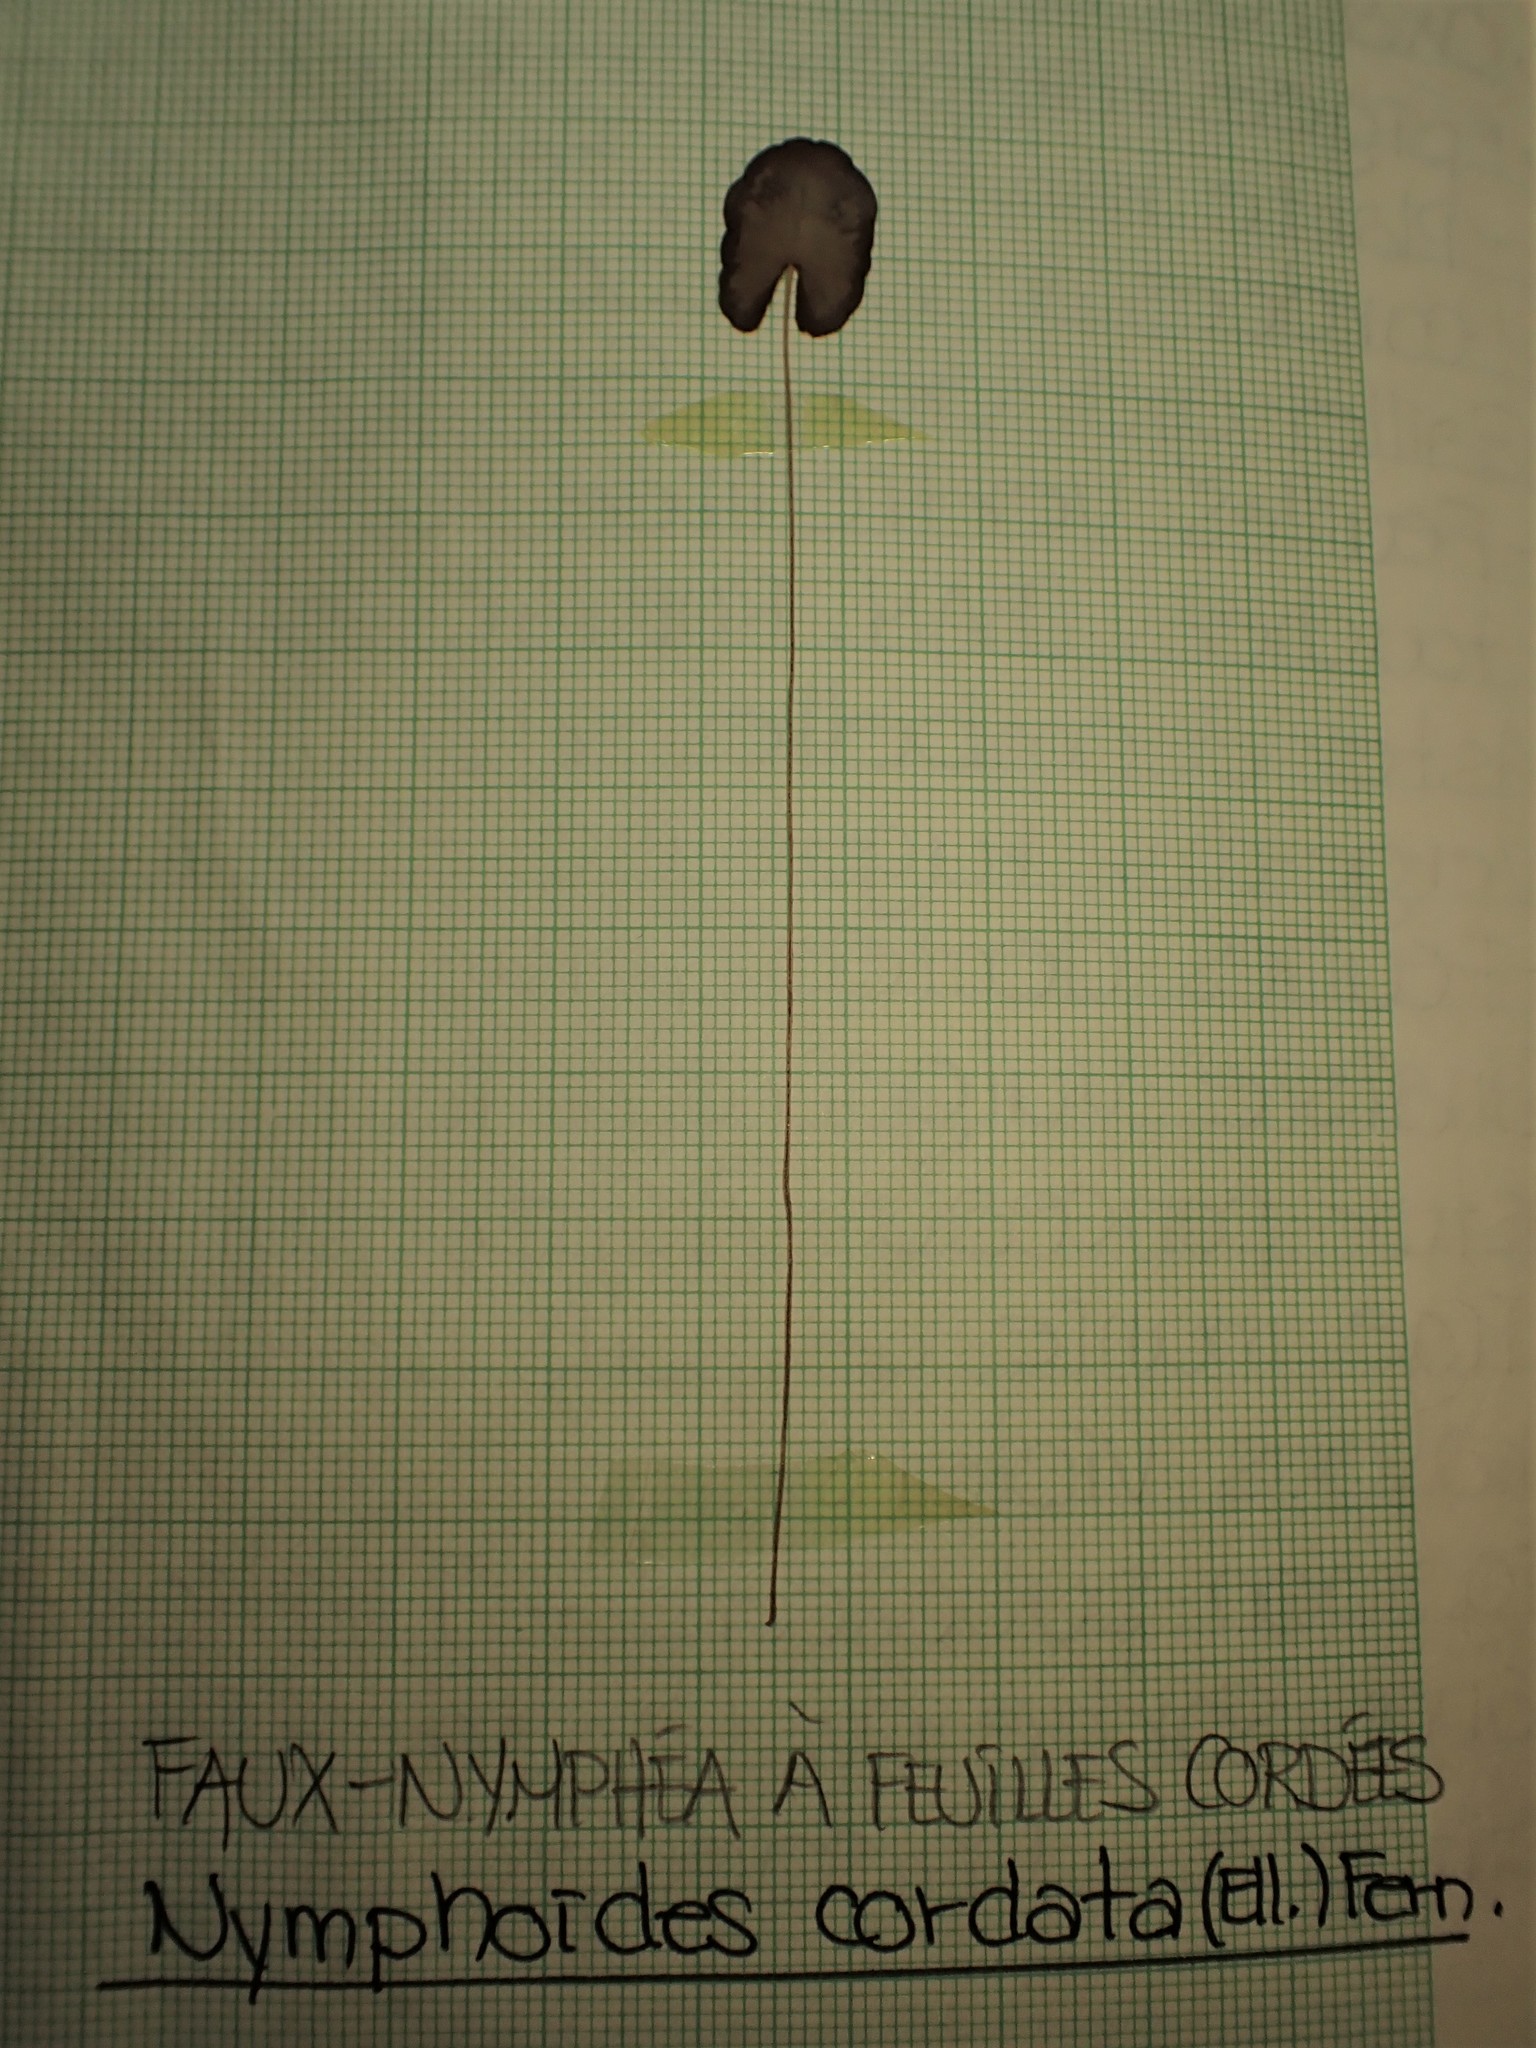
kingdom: Plantae
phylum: Tracheophyta
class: Magnoliopsida
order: Asterales
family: Menyanthaceae
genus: Nymphoides
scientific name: Nymphoides cordata
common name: Eight-angled floatingheart
